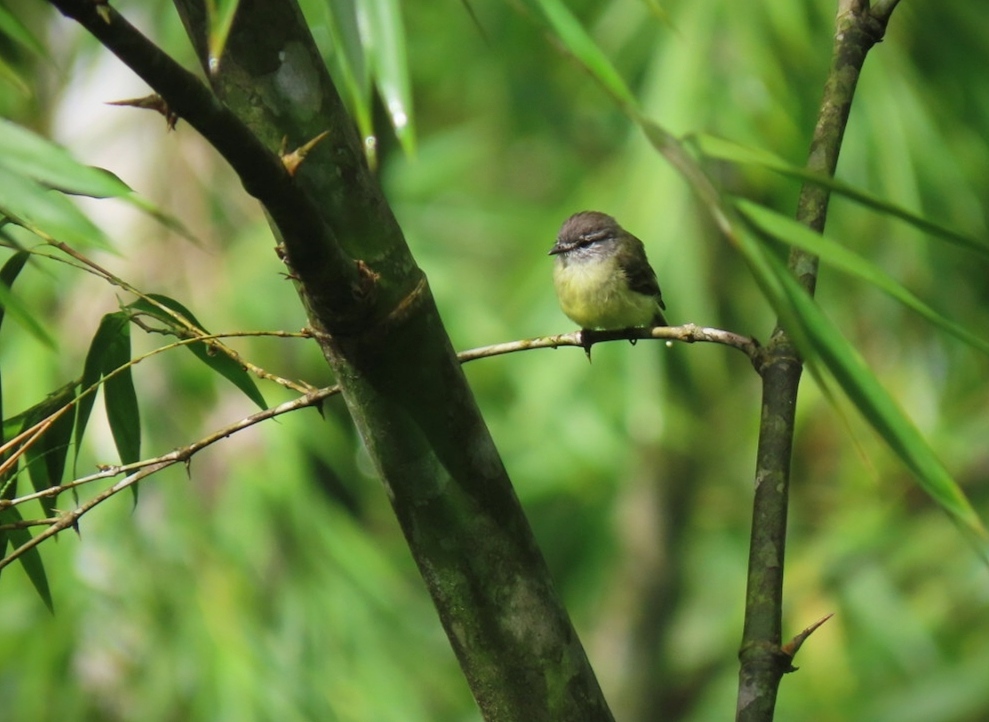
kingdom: Animalia
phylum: Chordata
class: Aves
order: Passeriformes
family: Tyrannidae
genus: Phyllomyias
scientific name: Phyllomyias griseiceps
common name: Sooty-headed tyrannulet
